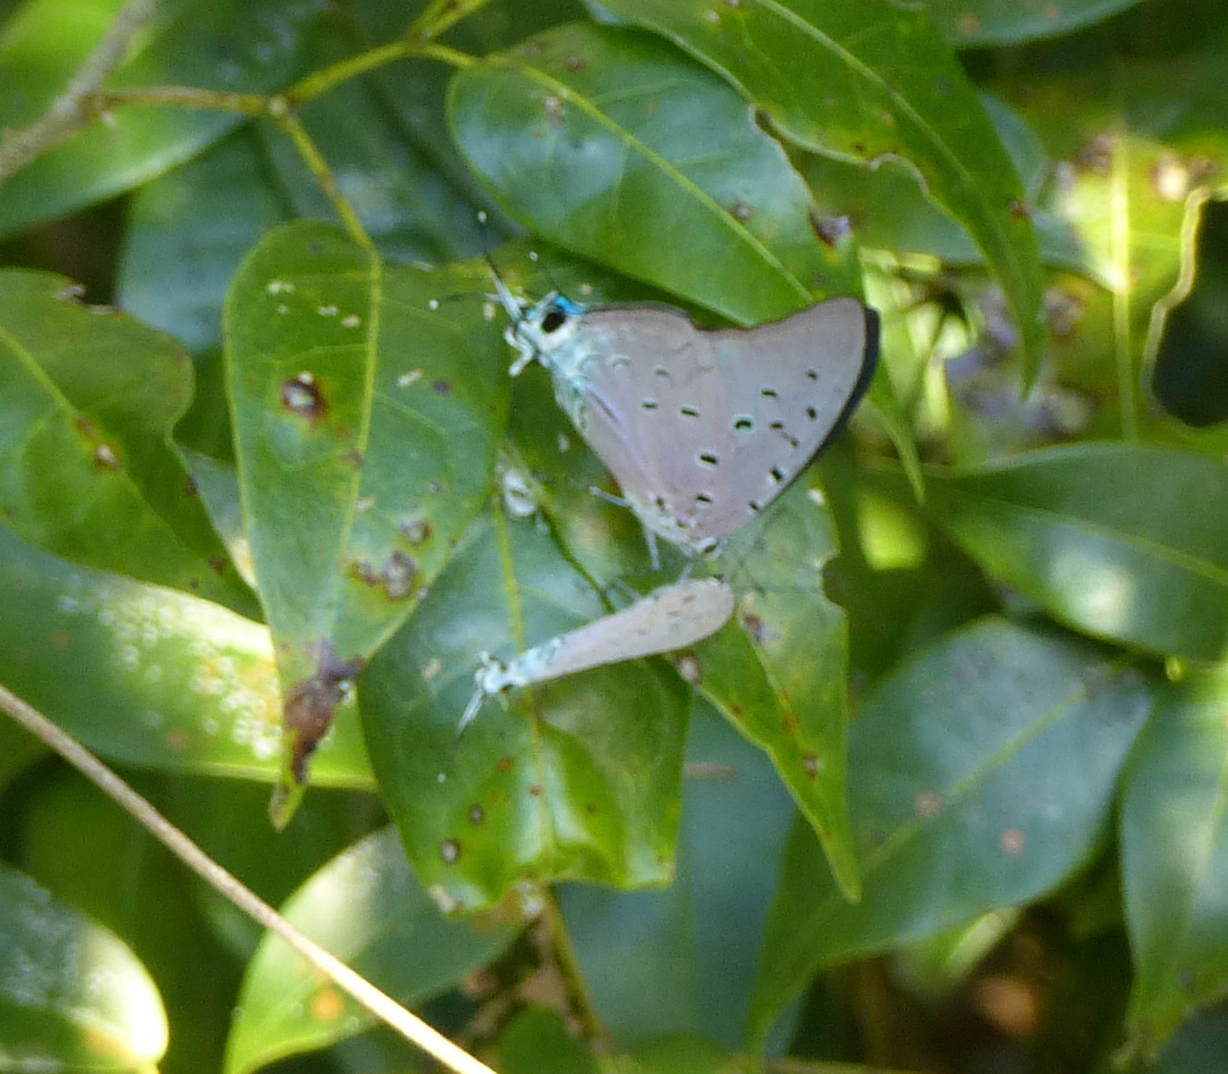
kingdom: Animalia
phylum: Arthropoda
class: Insecta
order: Lepidoptera
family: Lycaenidae
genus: Pseudolycaena
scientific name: Pseudolycaena marsyas
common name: Marsyas hairstreak
